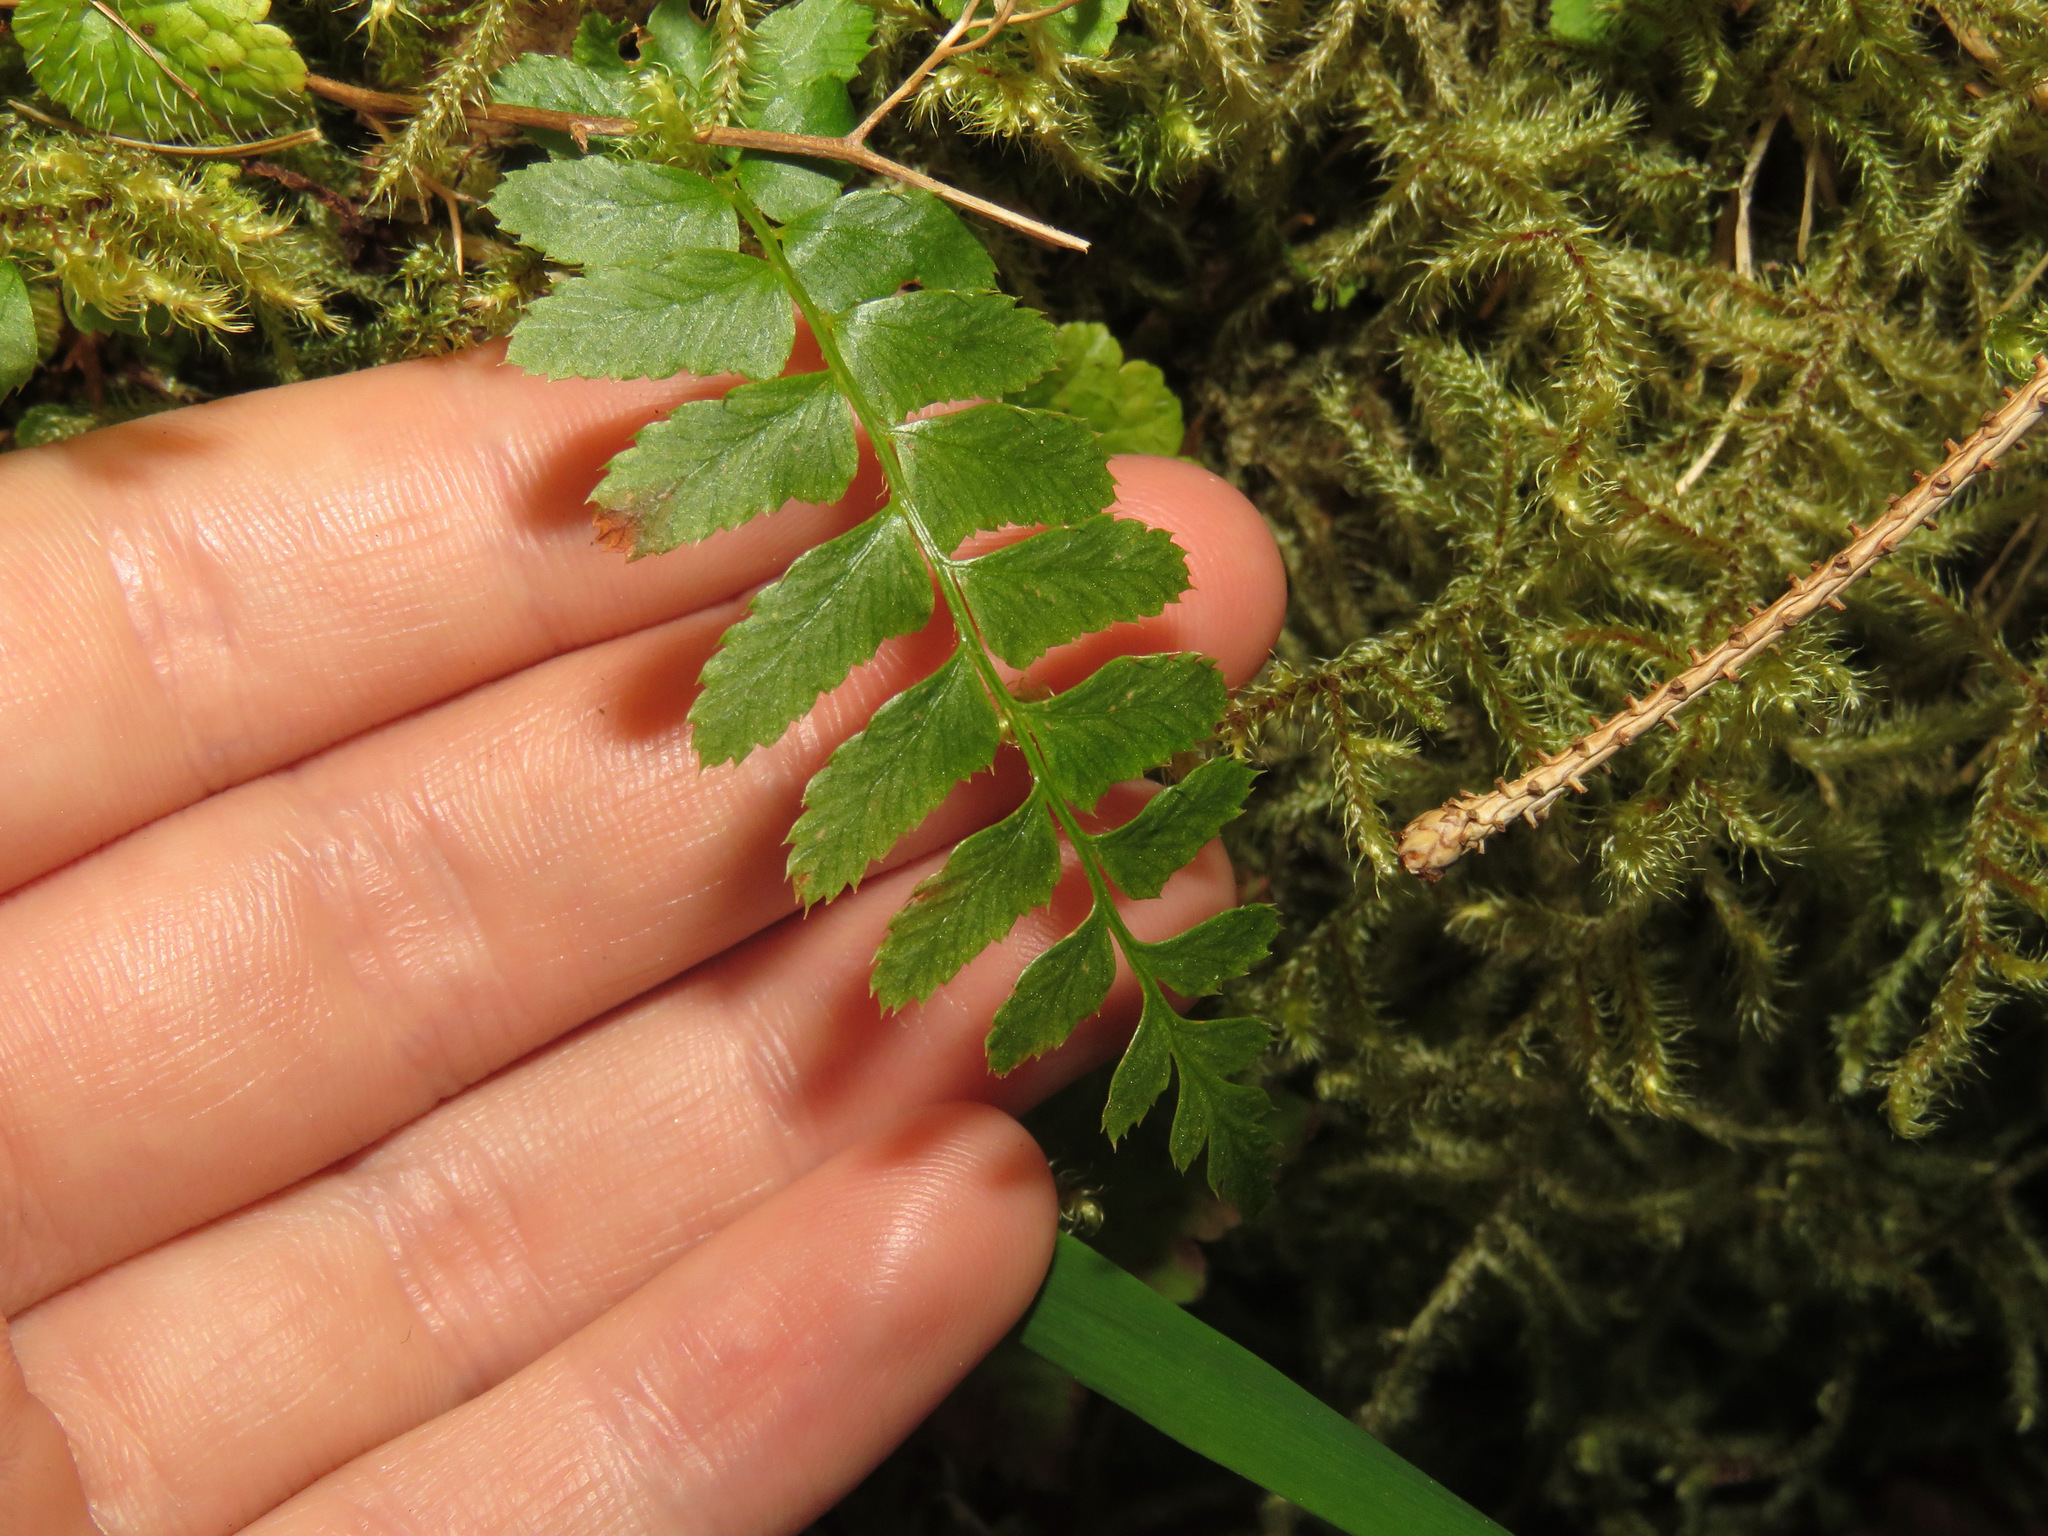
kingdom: Plantae
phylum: Tracheophyta
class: Polypodiopsida
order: Polypodiales
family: Dryopteridaceae
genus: Polystichum
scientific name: Polystichum munitum
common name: Western sword-fern
